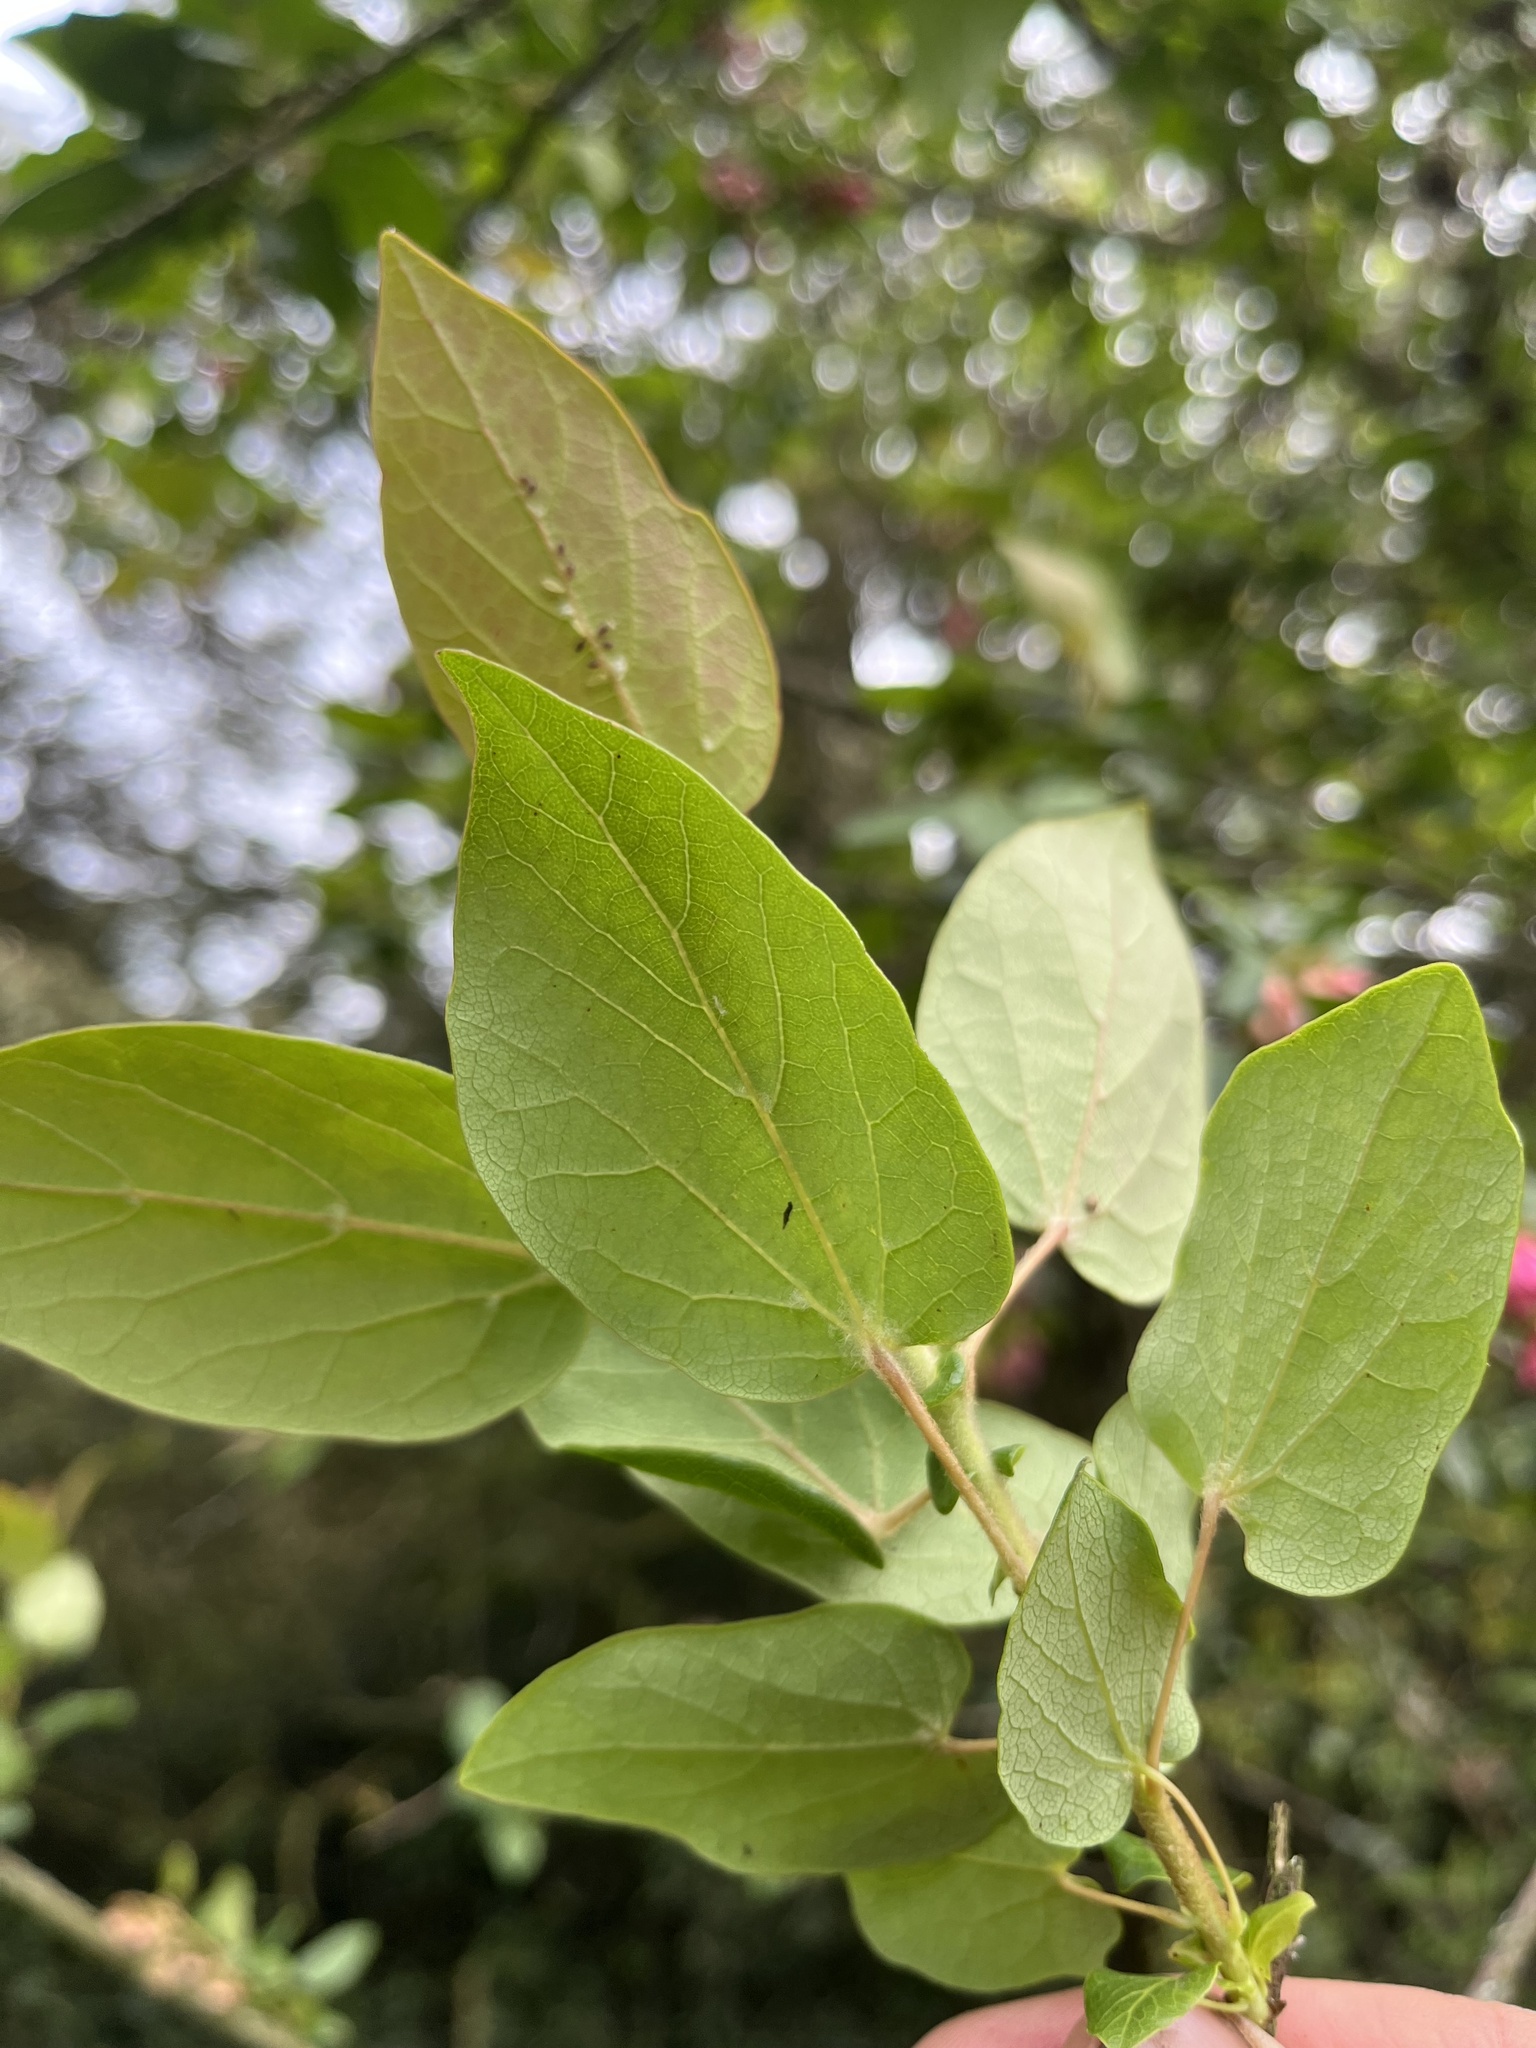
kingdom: Plantae
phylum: Tracheophyta
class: Magnoliopsida
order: Oxalidales
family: Elaeocarpaceae
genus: Vallea
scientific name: Vallea stipularis
